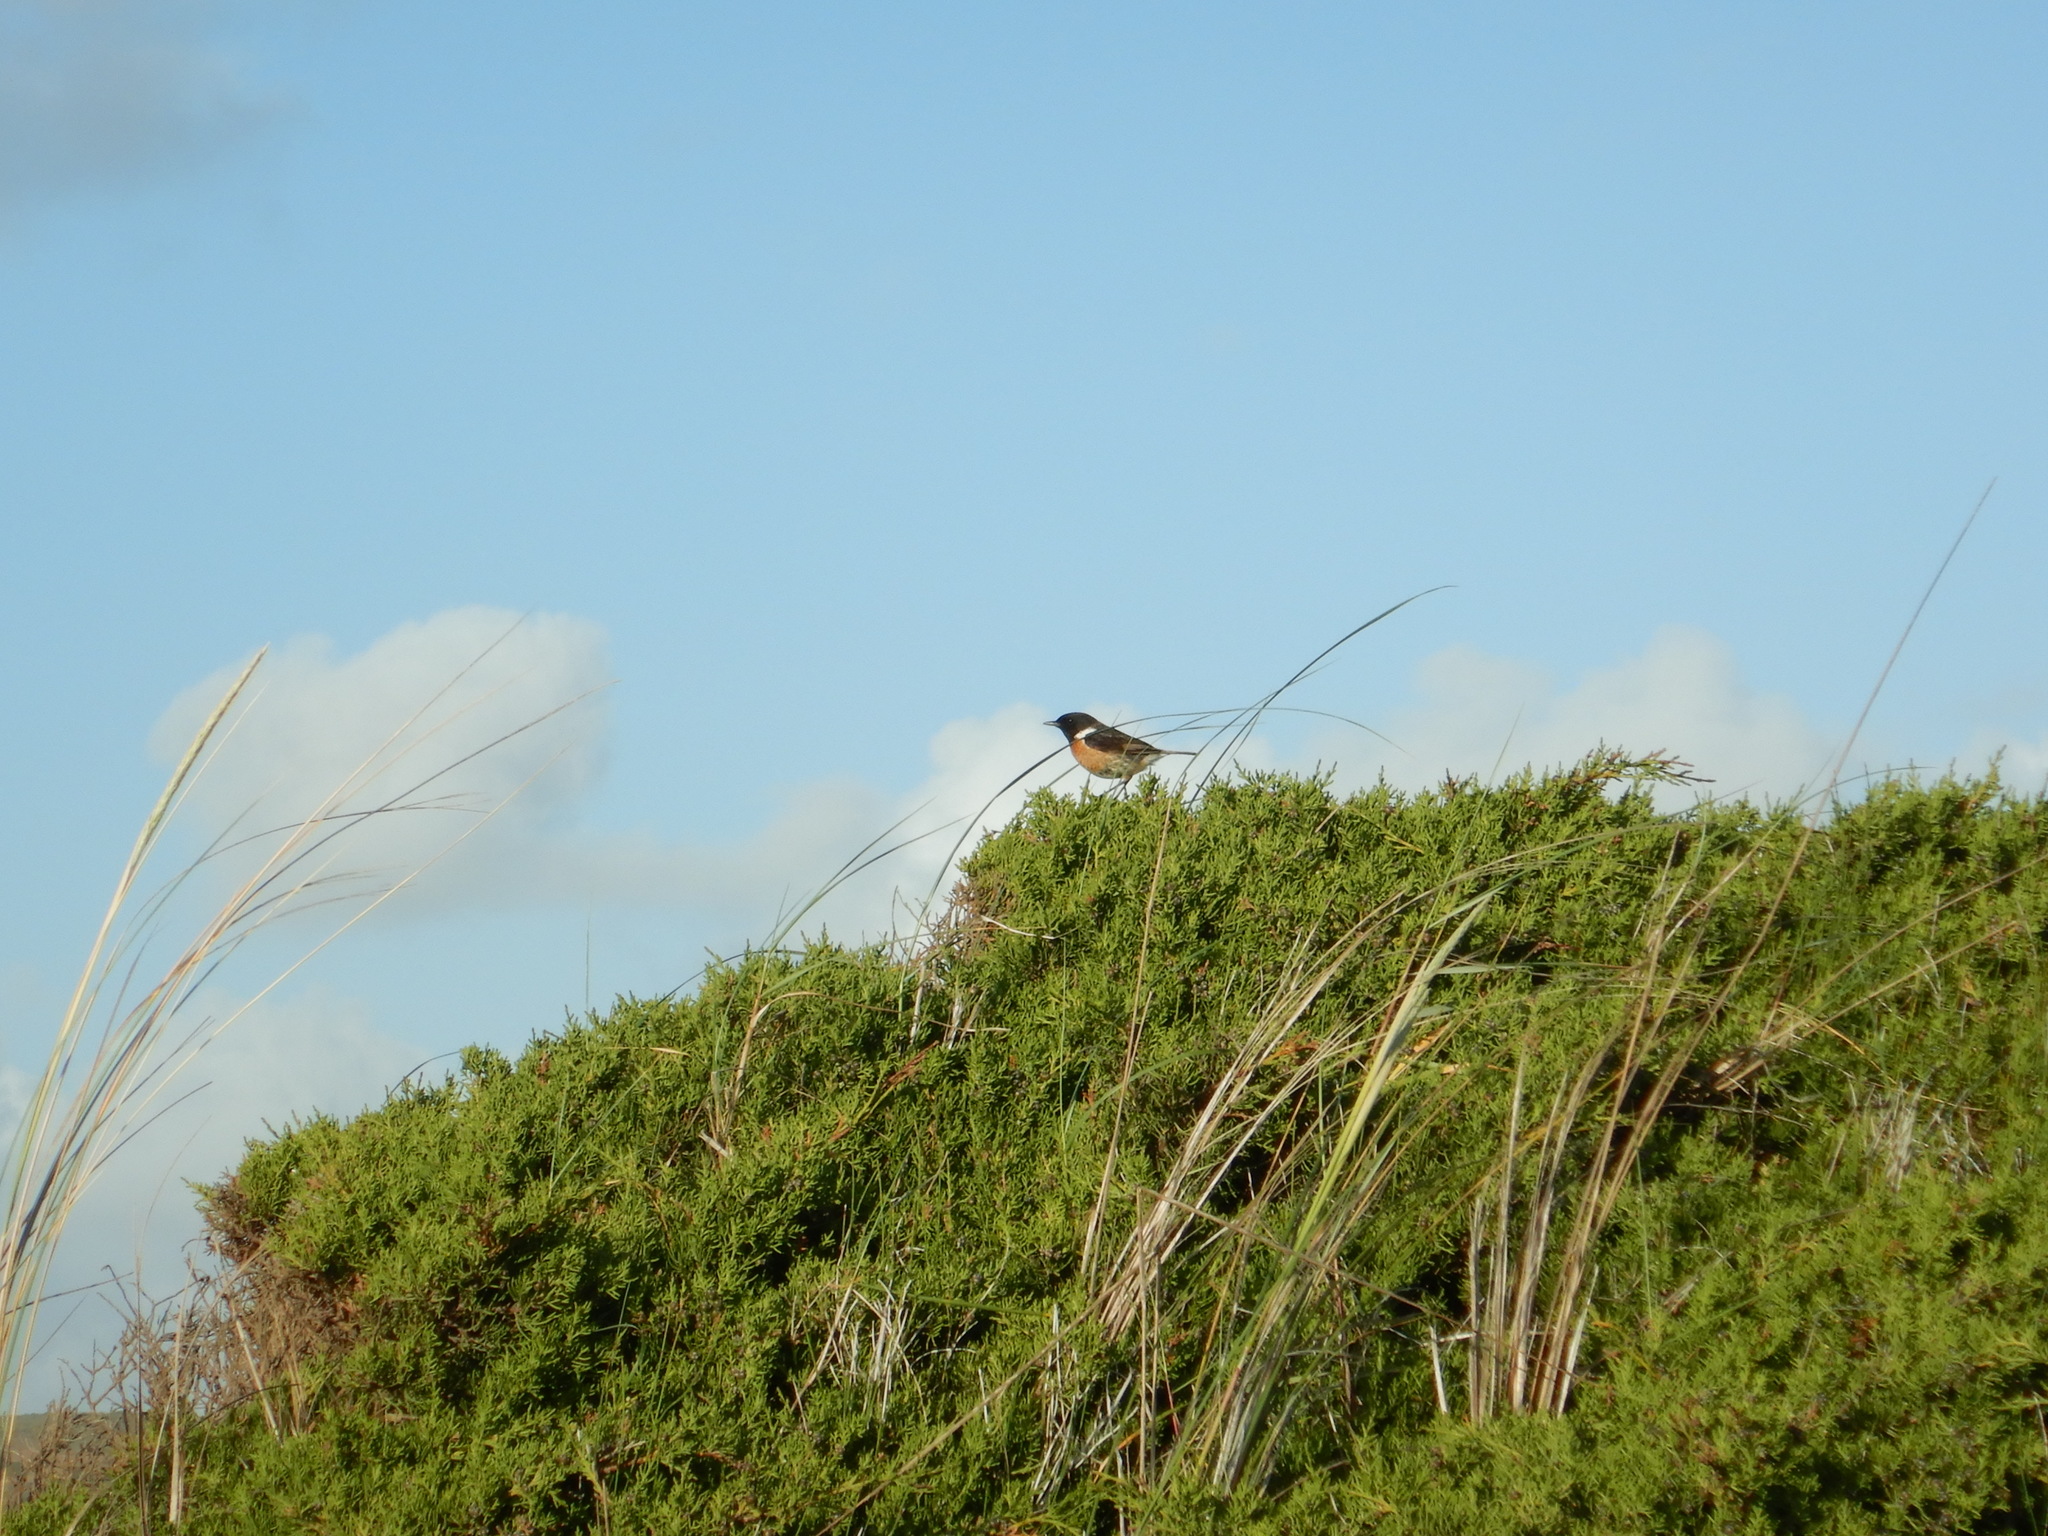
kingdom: Animalia
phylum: Chordata
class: Aves
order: Passeriformes
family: Muscicapidae
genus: Saxicola
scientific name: Saxicola rubicola
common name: European stonechat
